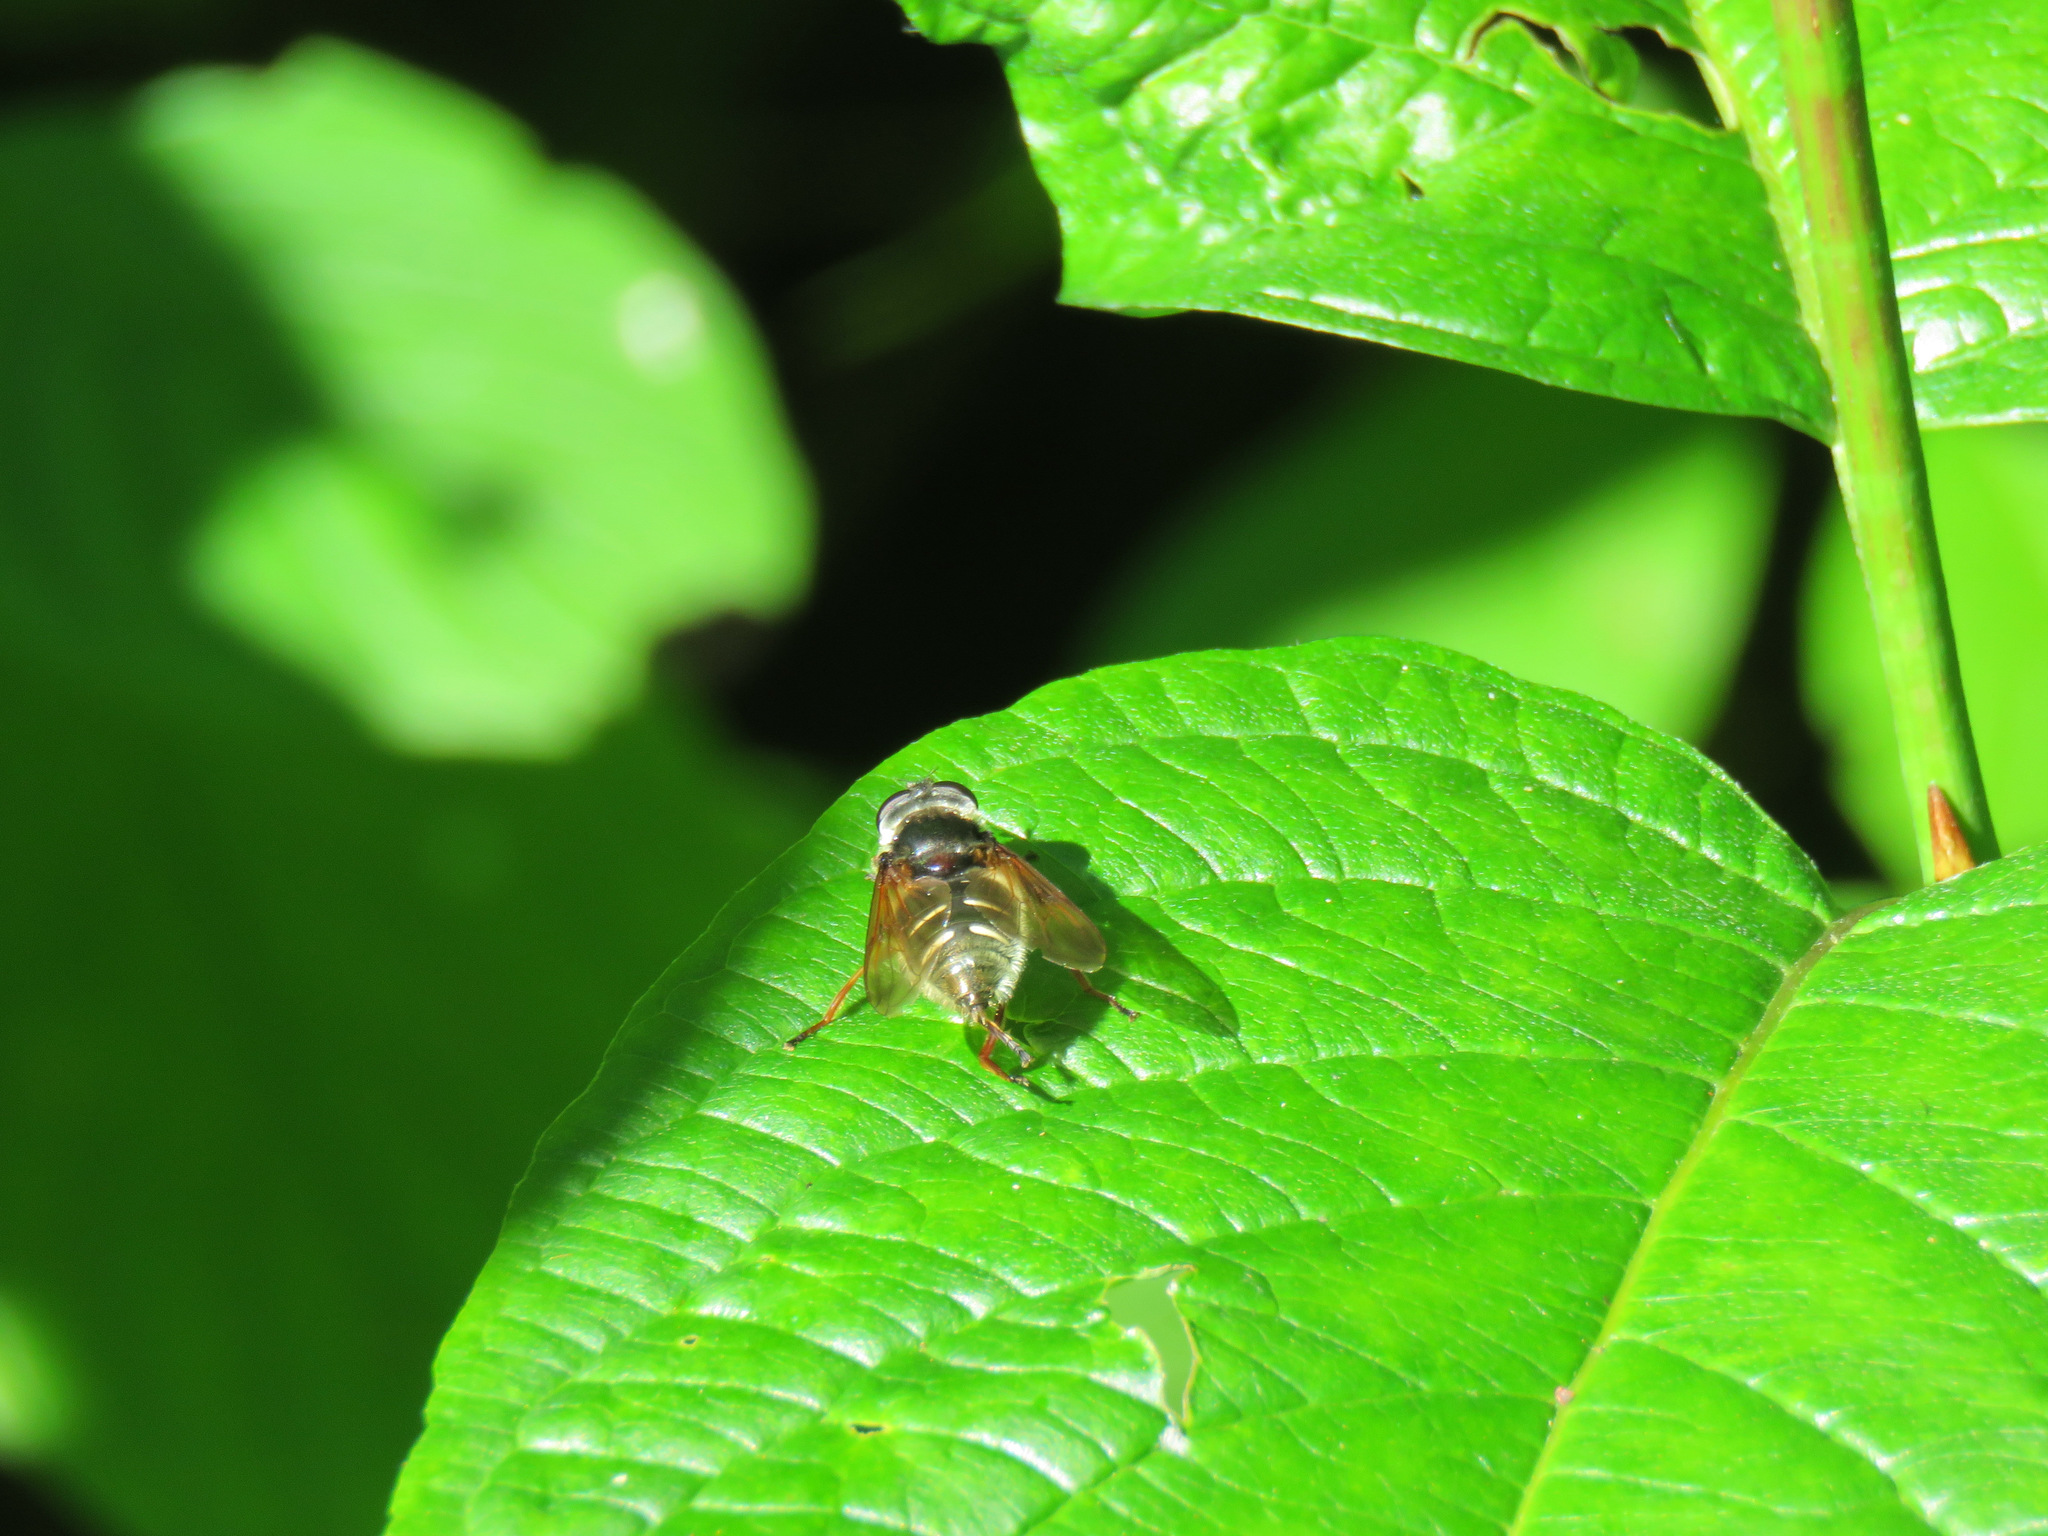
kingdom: Animalia
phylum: Arthropoda
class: Insecta
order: Diptera
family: Syrphidae
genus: Sericomyia
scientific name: Sericomyia militaris
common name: Narrow-banded pond fly
